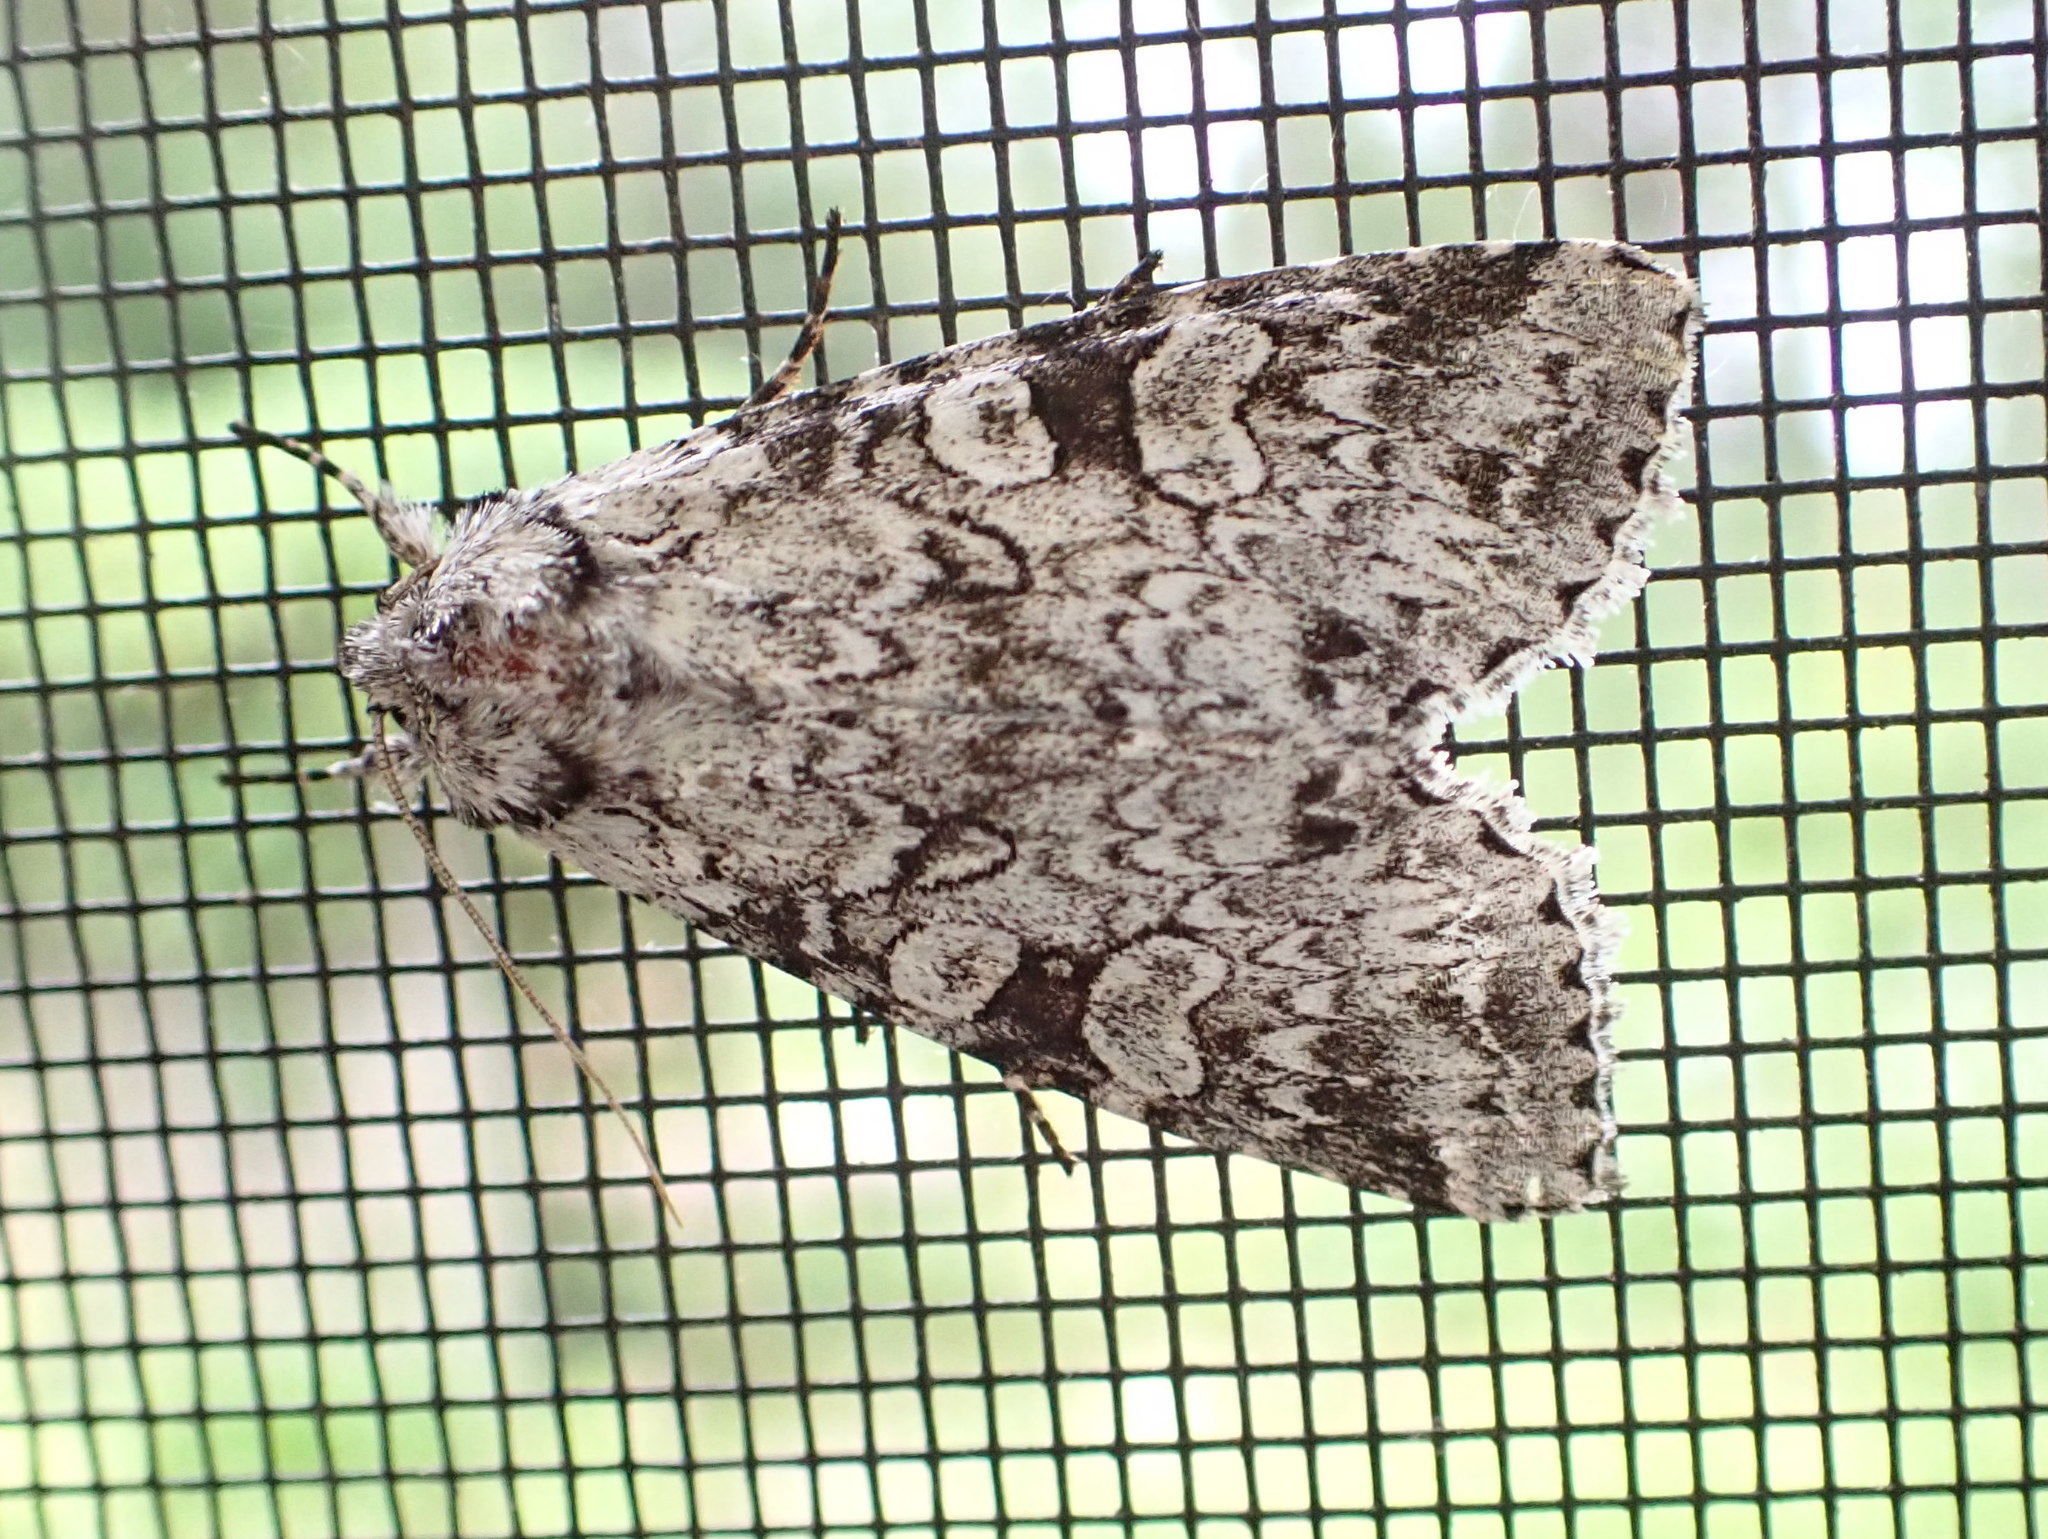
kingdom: Animalia
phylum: Arthropoda
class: Insecta
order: Lepidoptera
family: Noctuidae
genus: Polia
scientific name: Polia nimbosa
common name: Stormy arches
